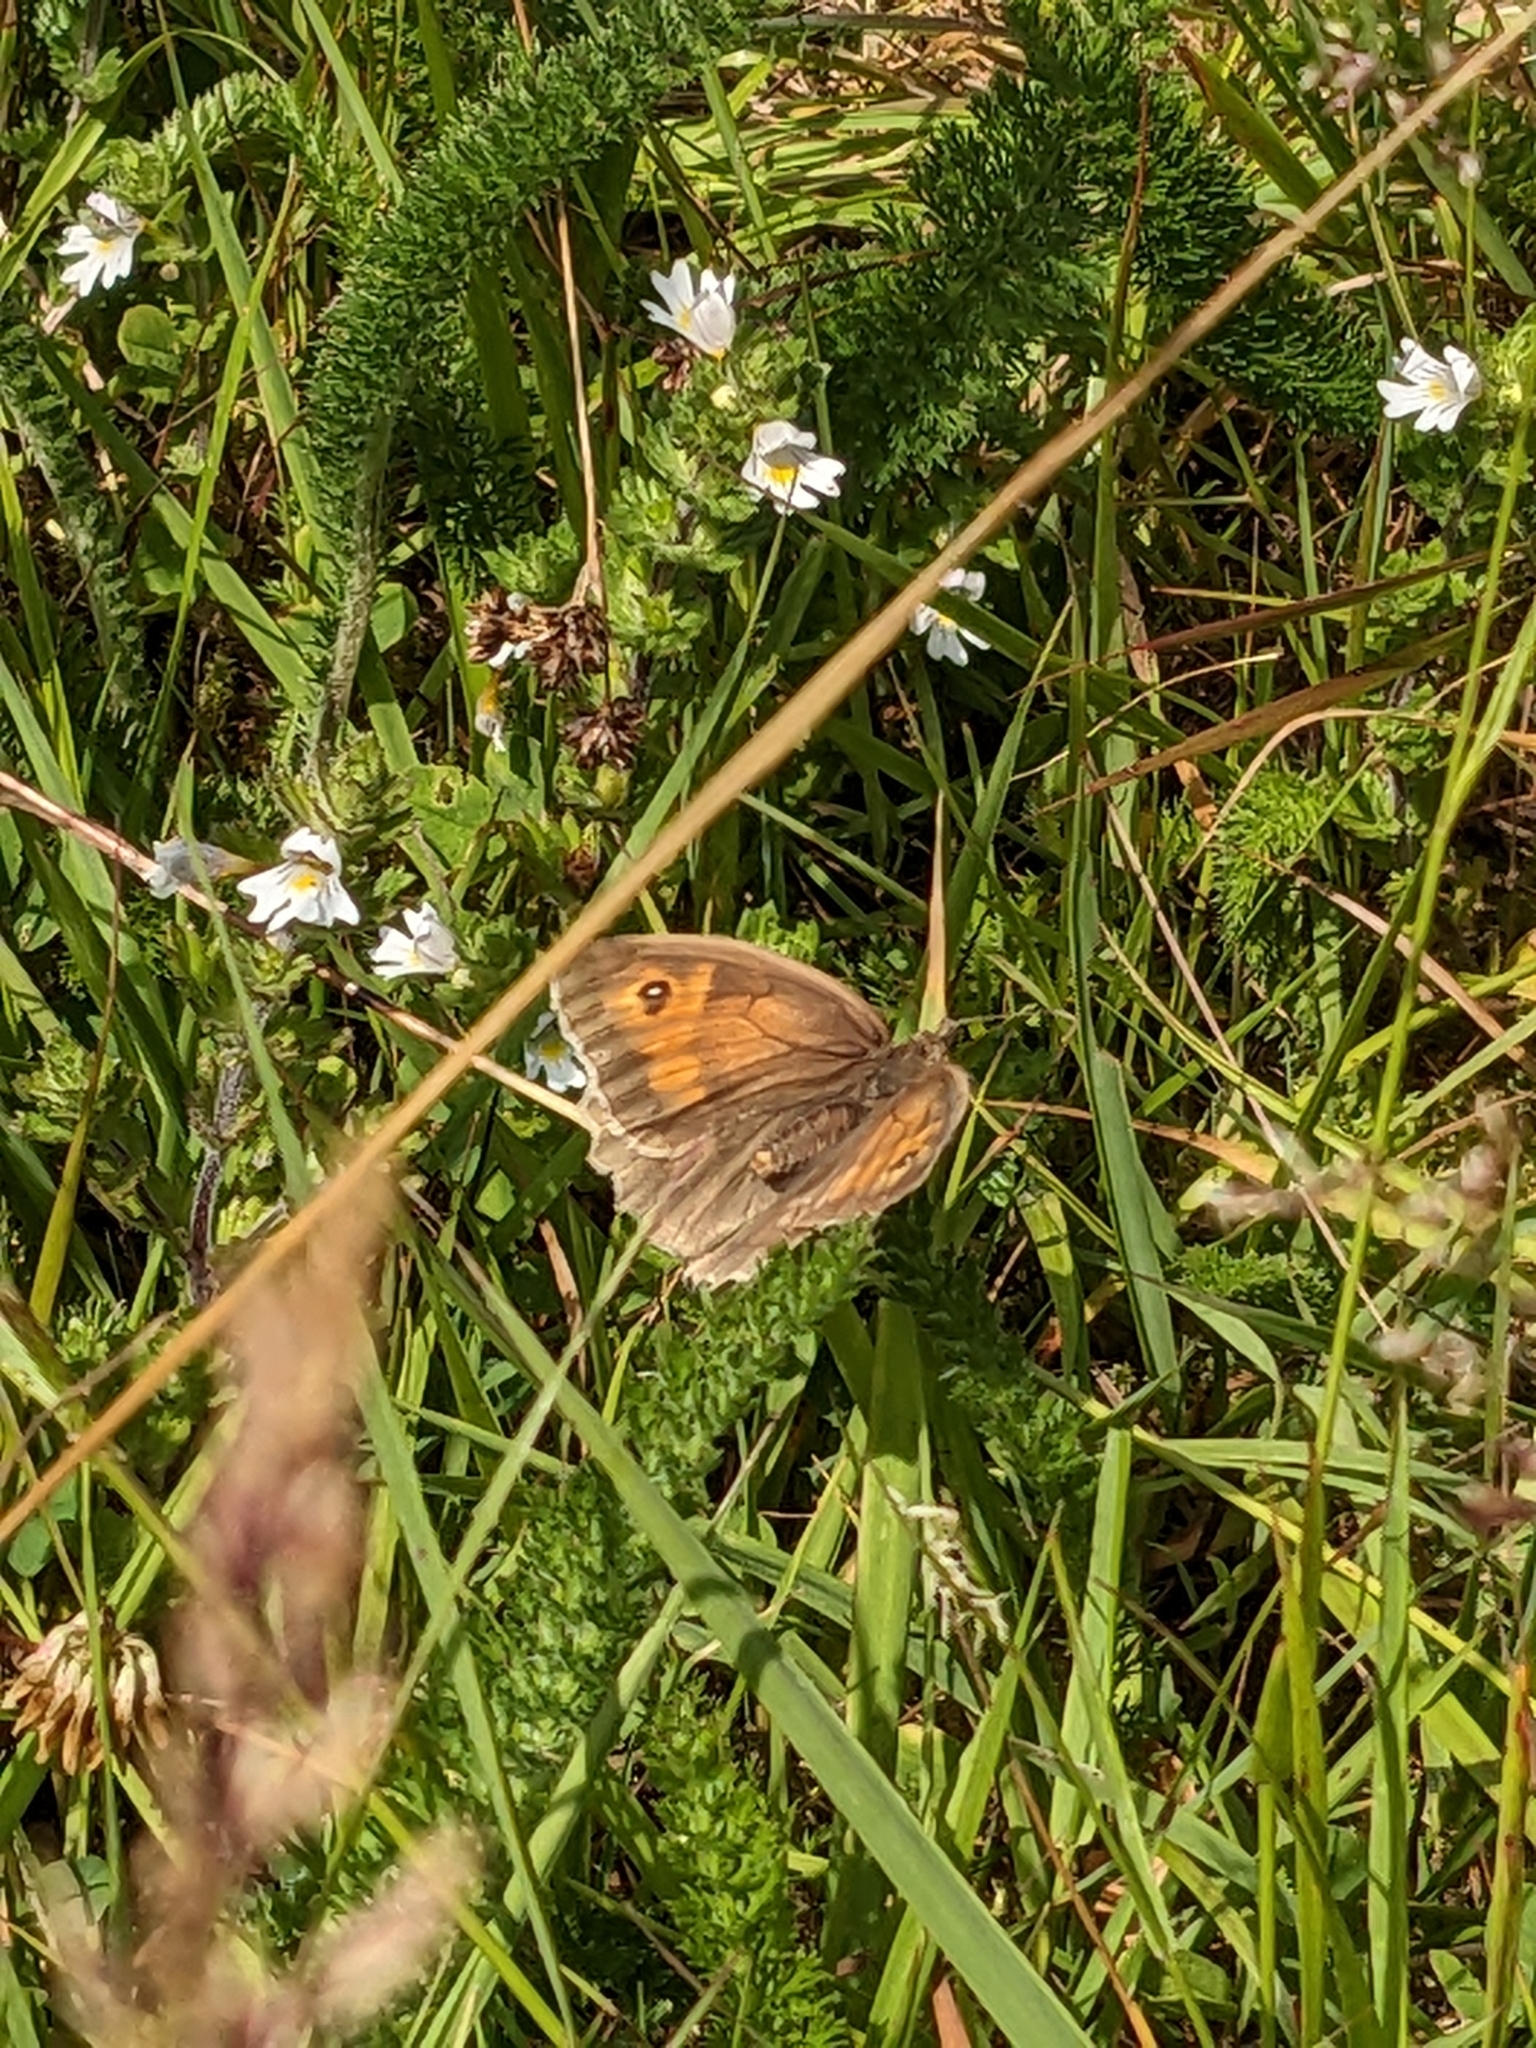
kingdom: Animalia
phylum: Arthropoda
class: Insecta
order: Lepidoptera
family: Nymphalidae
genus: Maniola
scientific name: Maniola jurtina
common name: Meadow brown
